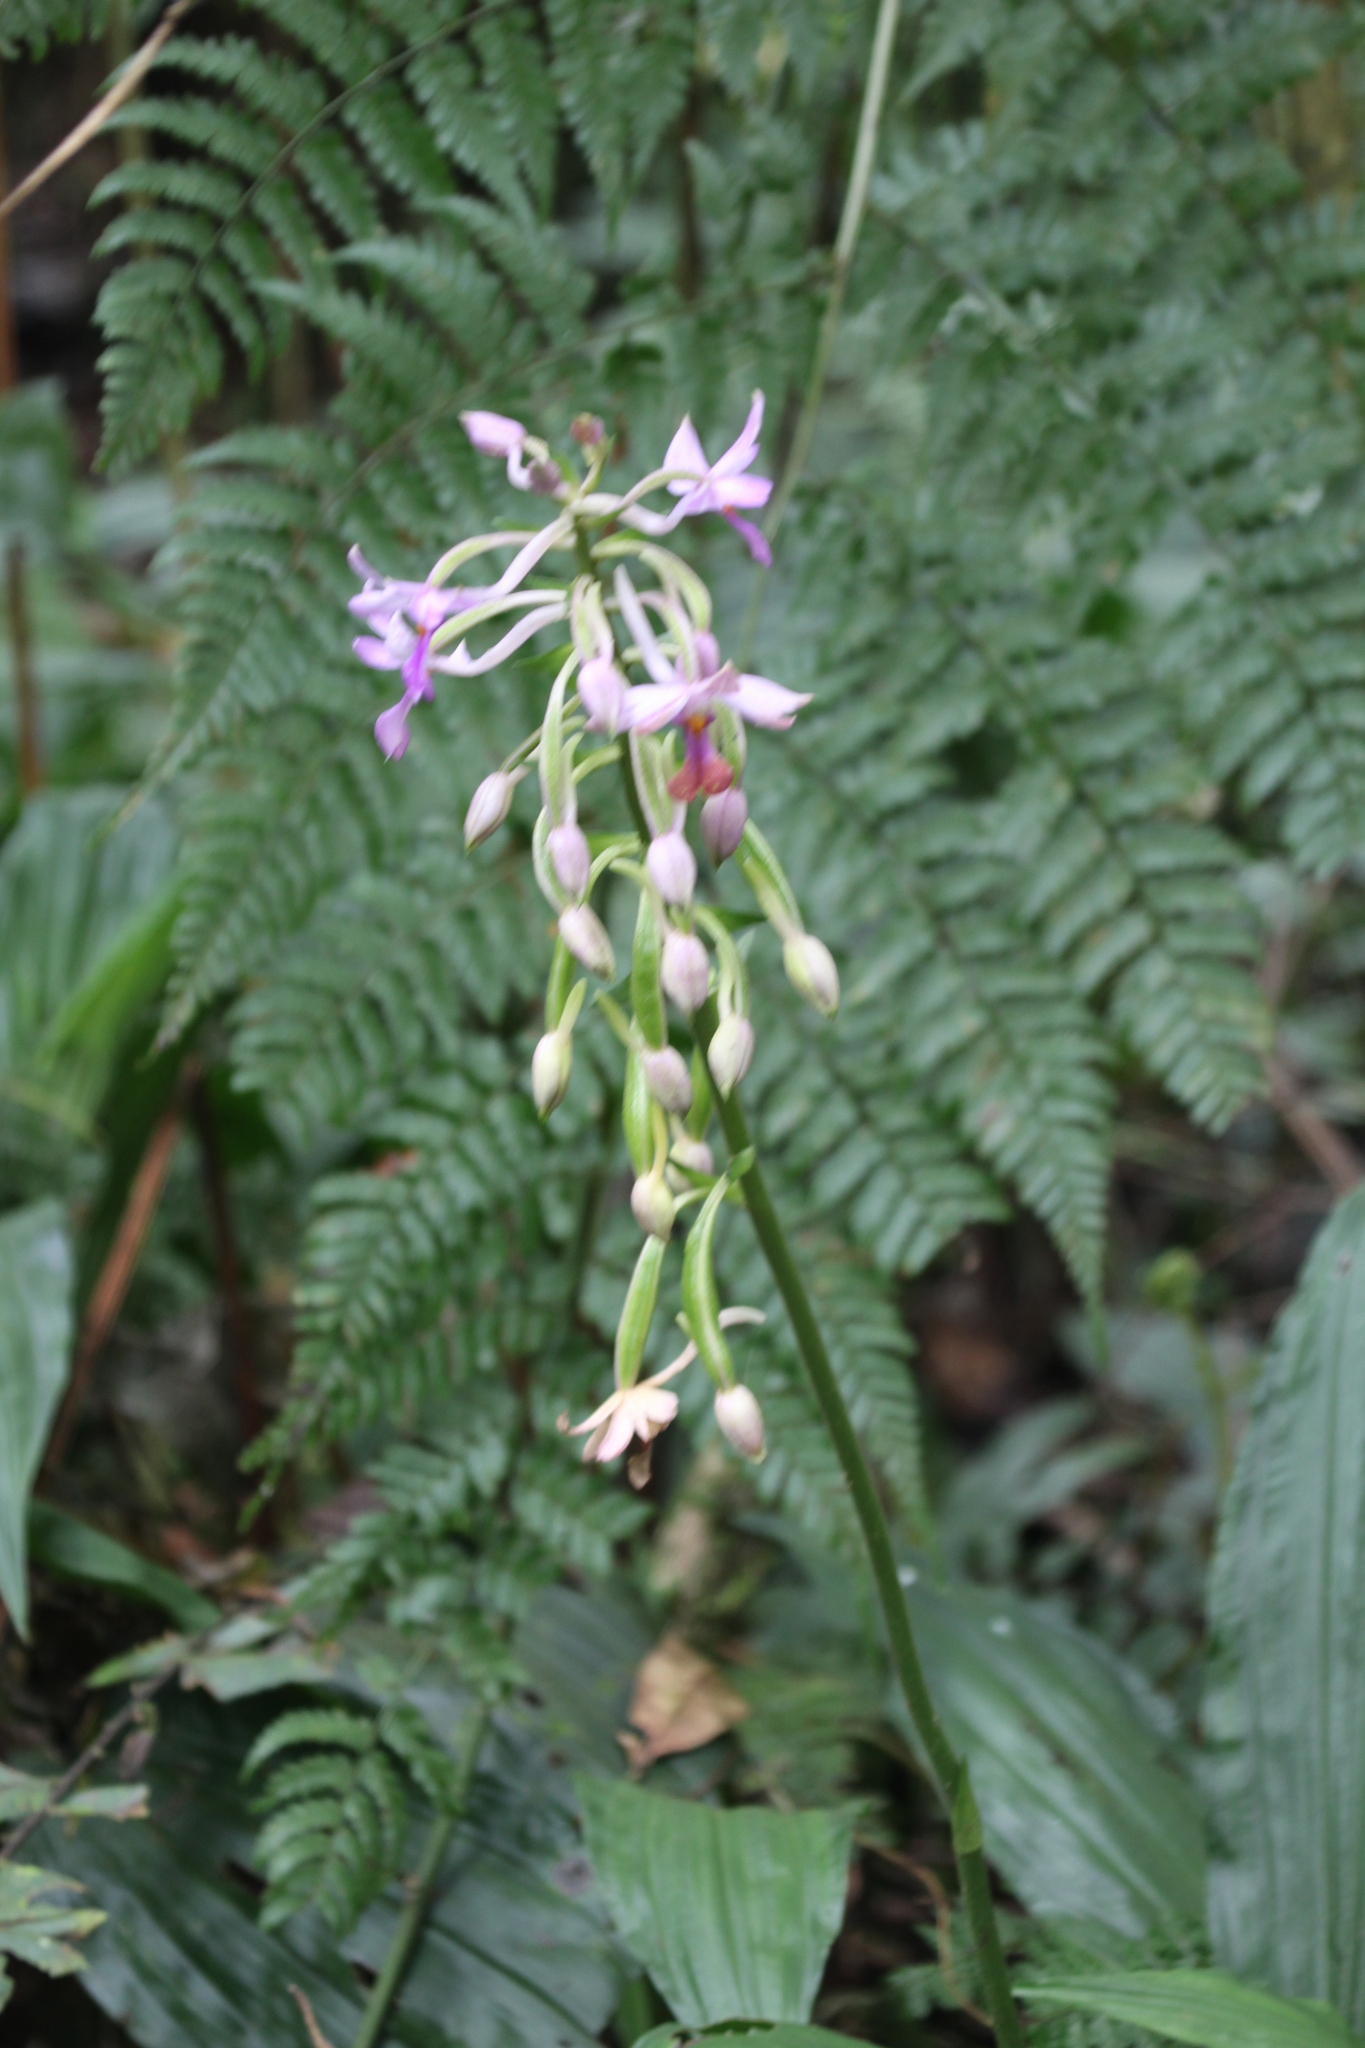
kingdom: Plantae
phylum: Tracheophyta
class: Liliopsida
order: Asparagales
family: Orchidaceae
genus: Calanthe
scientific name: Calanthe sylvatica
